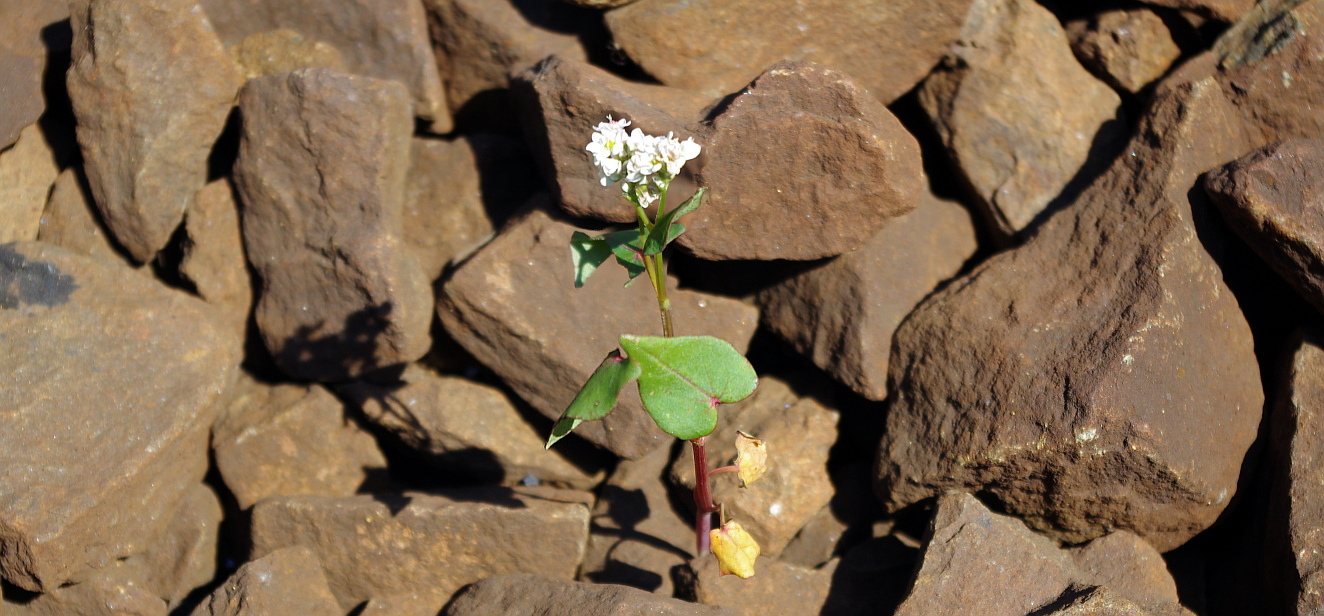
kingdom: Plantae
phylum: Tracheophyta
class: Magnoliopsida
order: Caryophyllales
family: Polygonaceae
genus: Fagopyrum
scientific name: Fagopyrum esculentum
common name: Buckwheat
